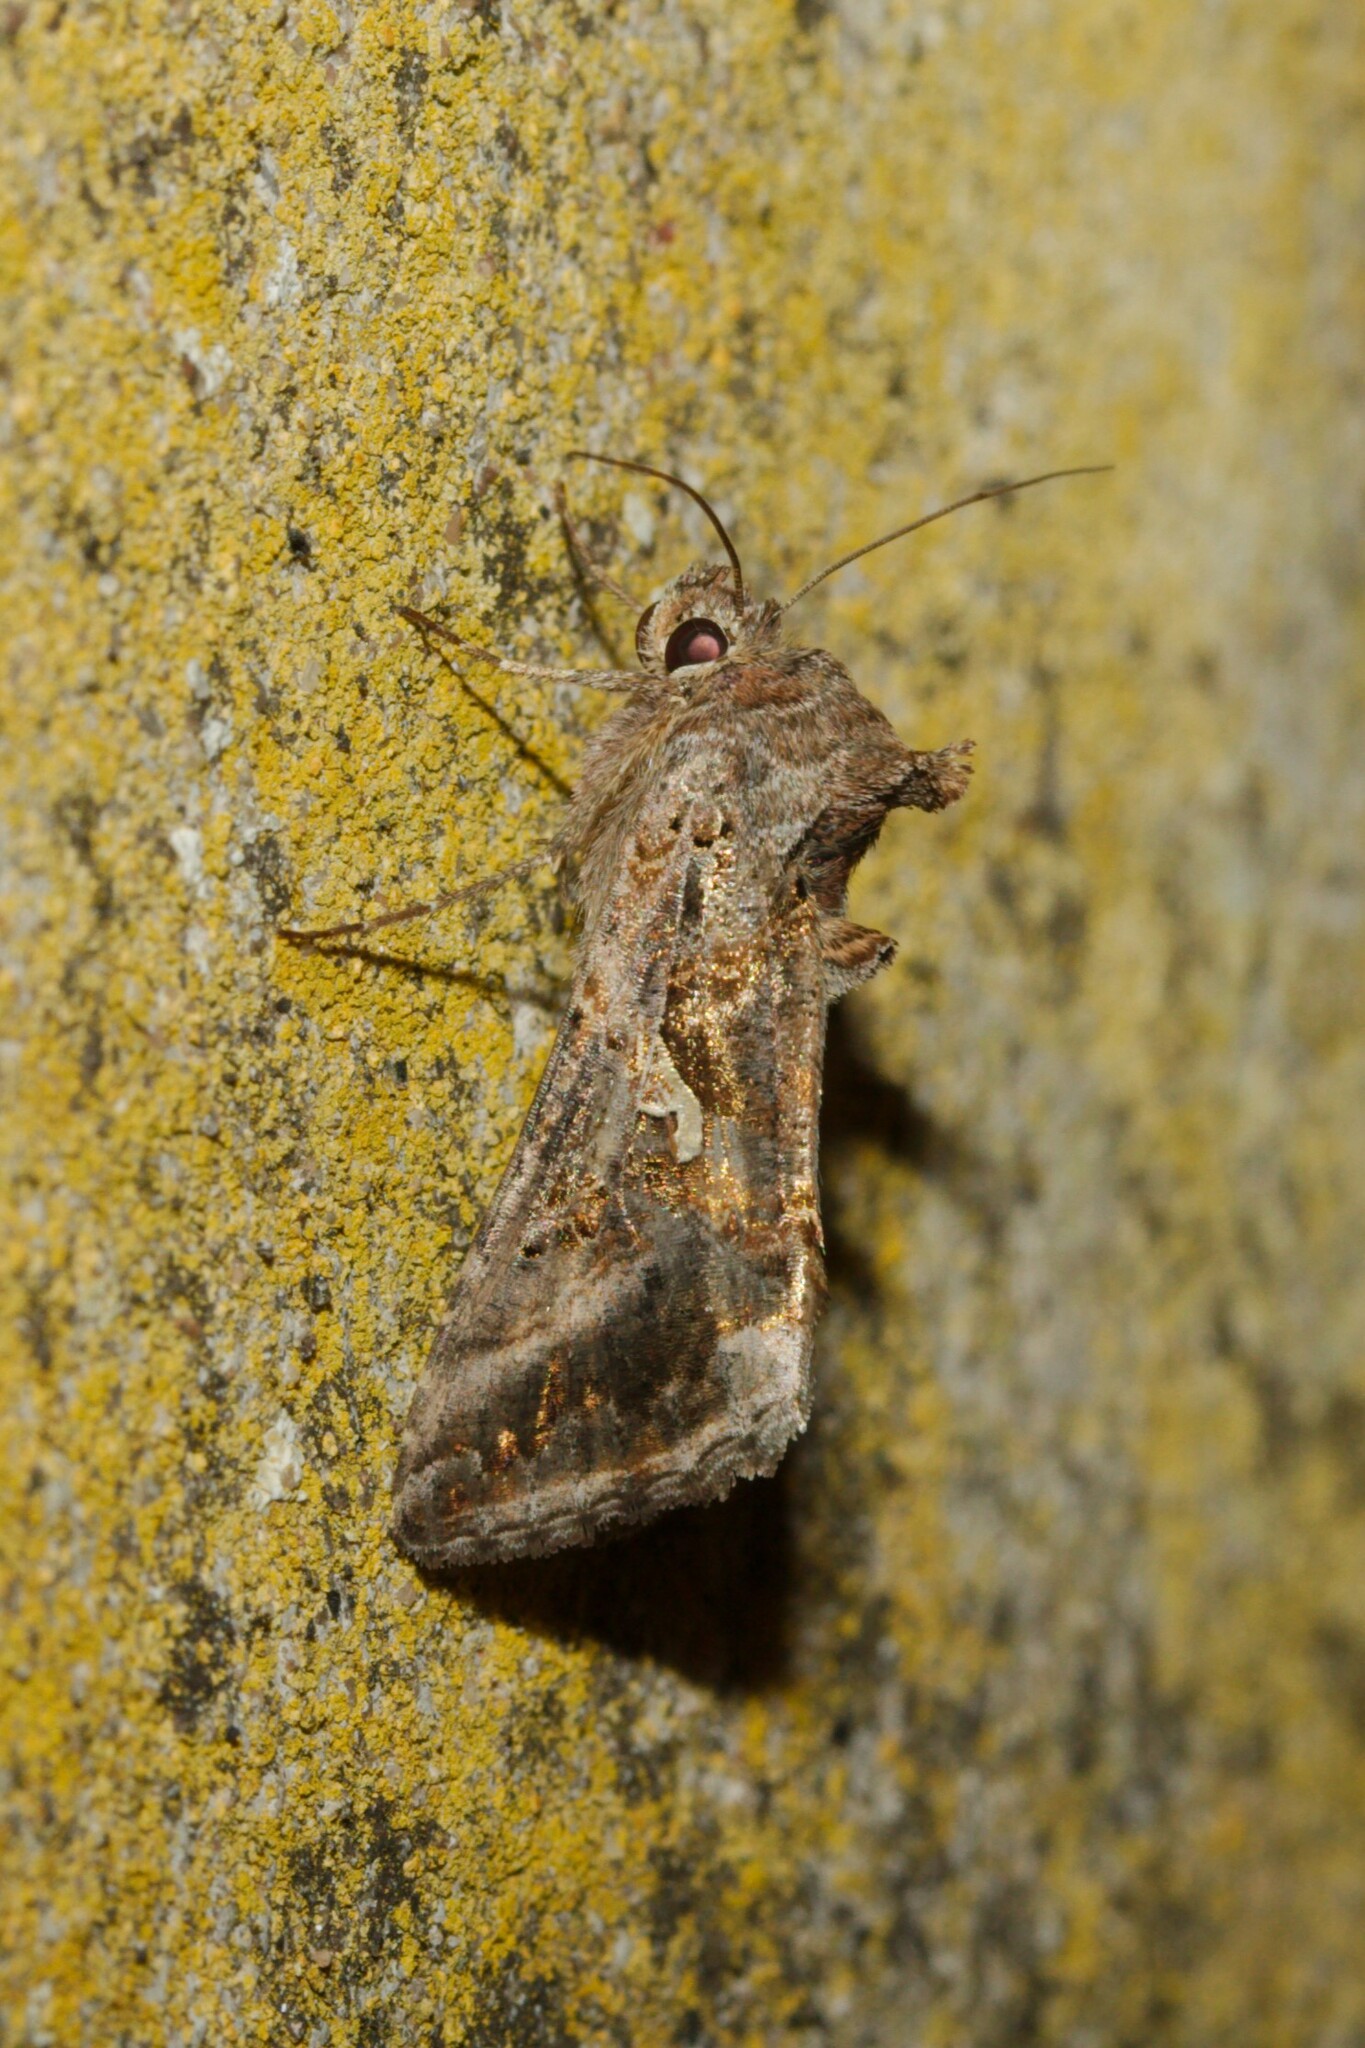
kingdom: Animalia
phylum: Arthropoda
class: Insecta
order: Lepidoptera
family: Noctuidae
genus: Autographa
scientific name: Autographa gamma
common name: Silver y
